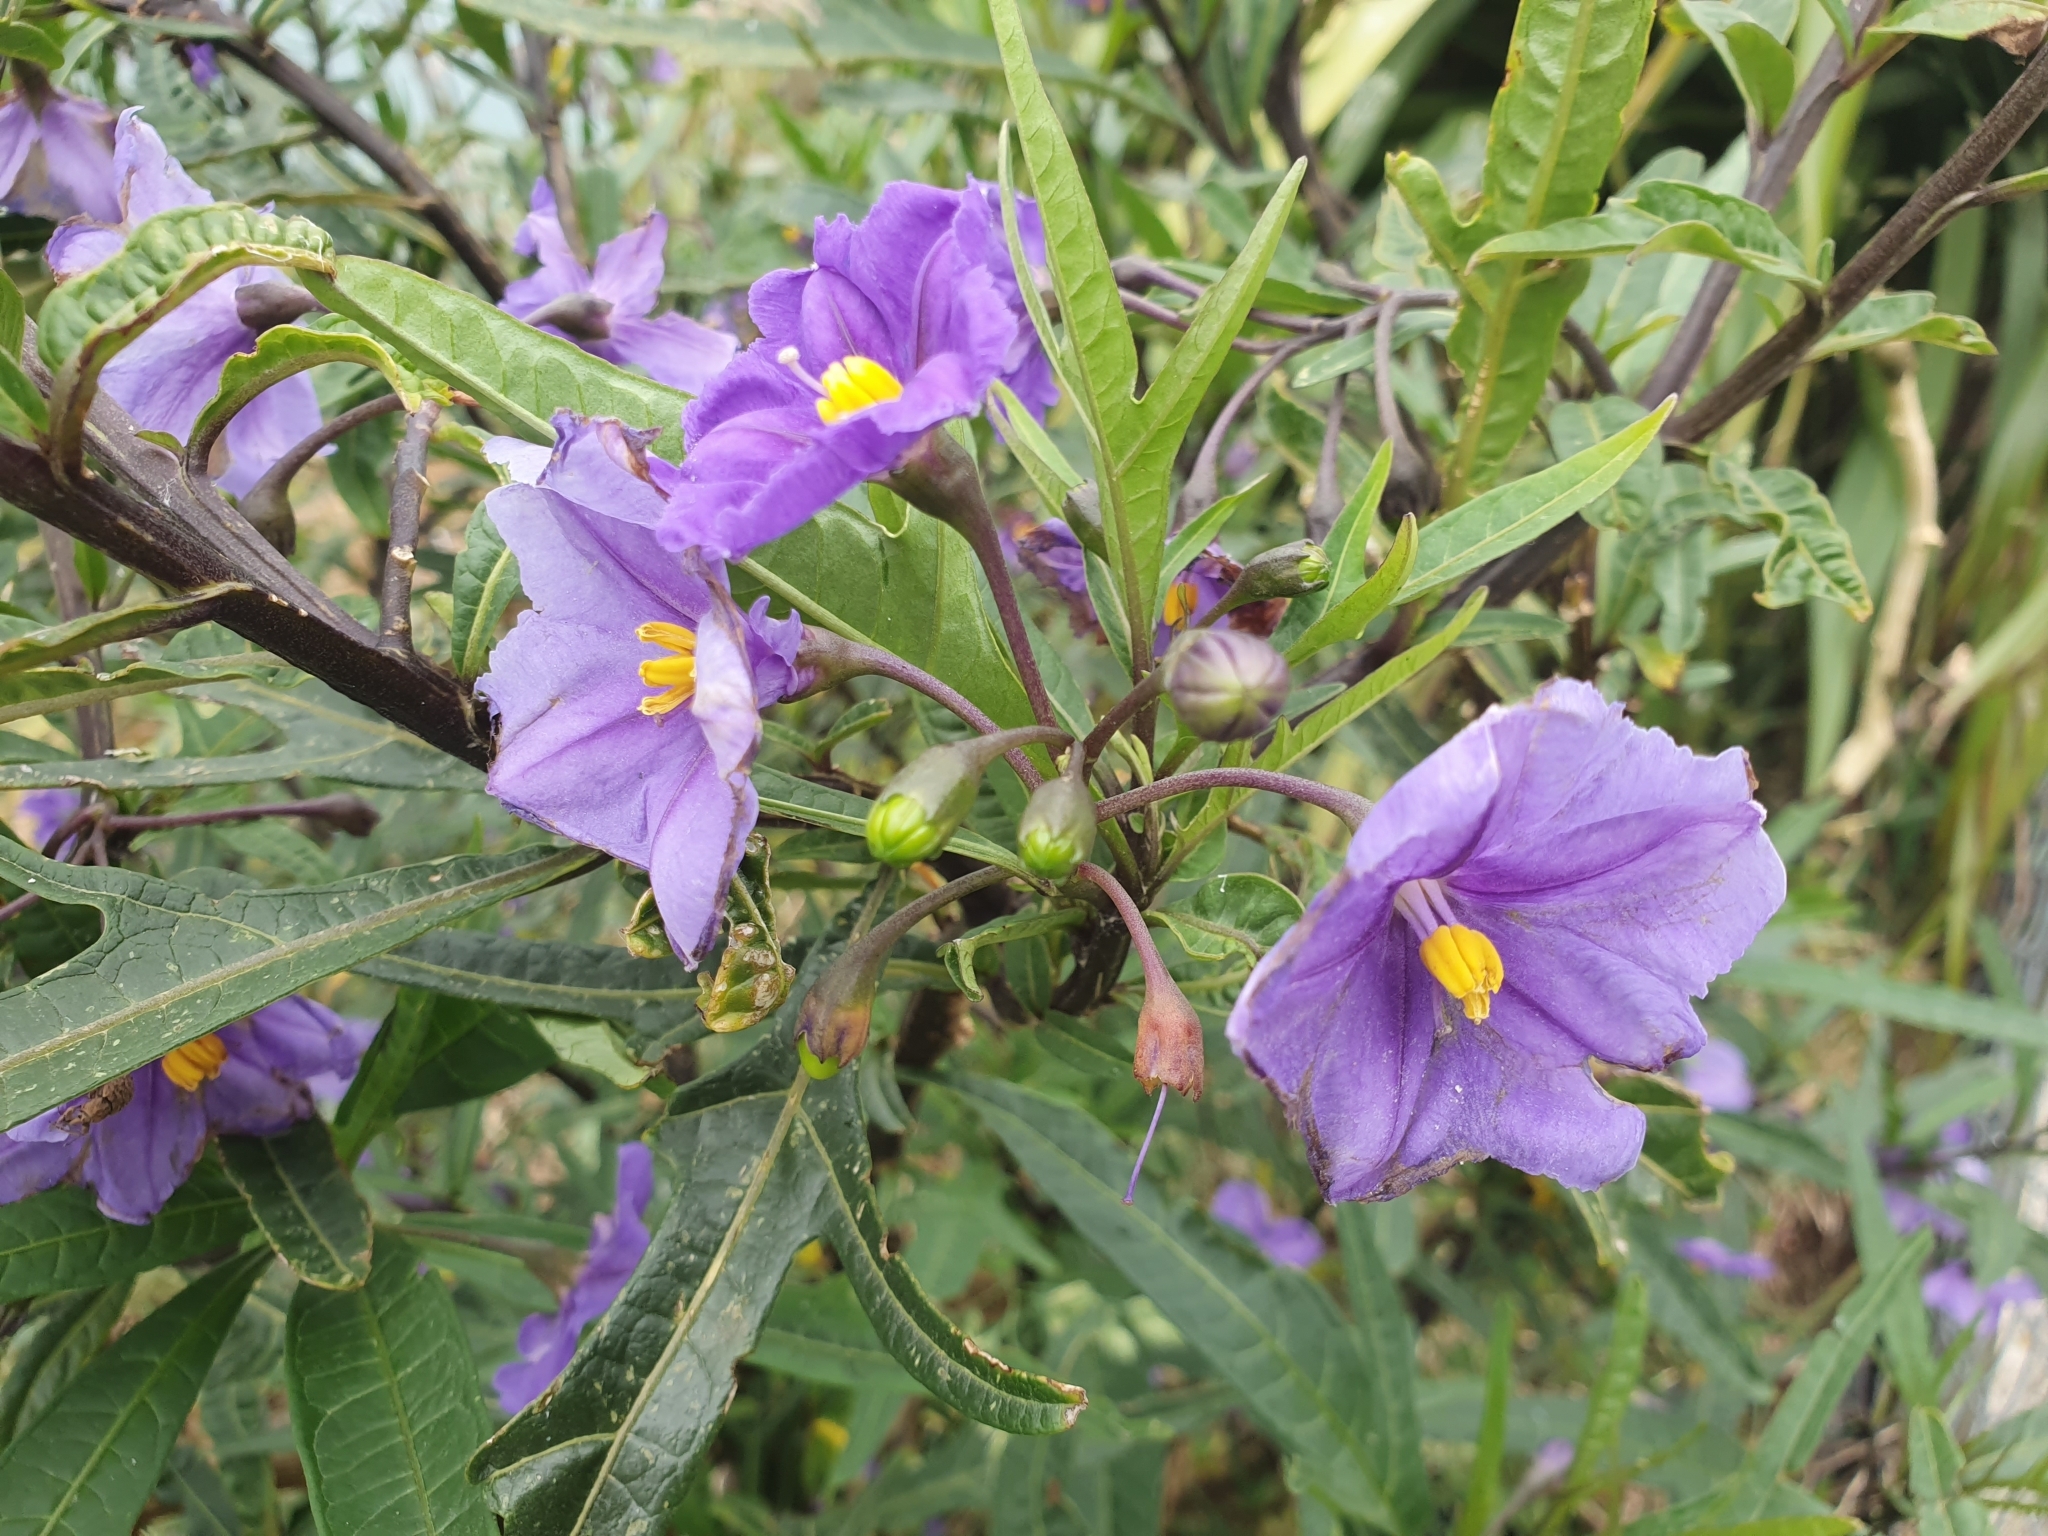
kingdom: Plantae
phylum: Tracheophyta
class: Magnoliopsida
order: Solanales
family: Solanaceae
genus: Solanum
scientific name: Solanum laciniatum
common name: Kangaroo-apple
